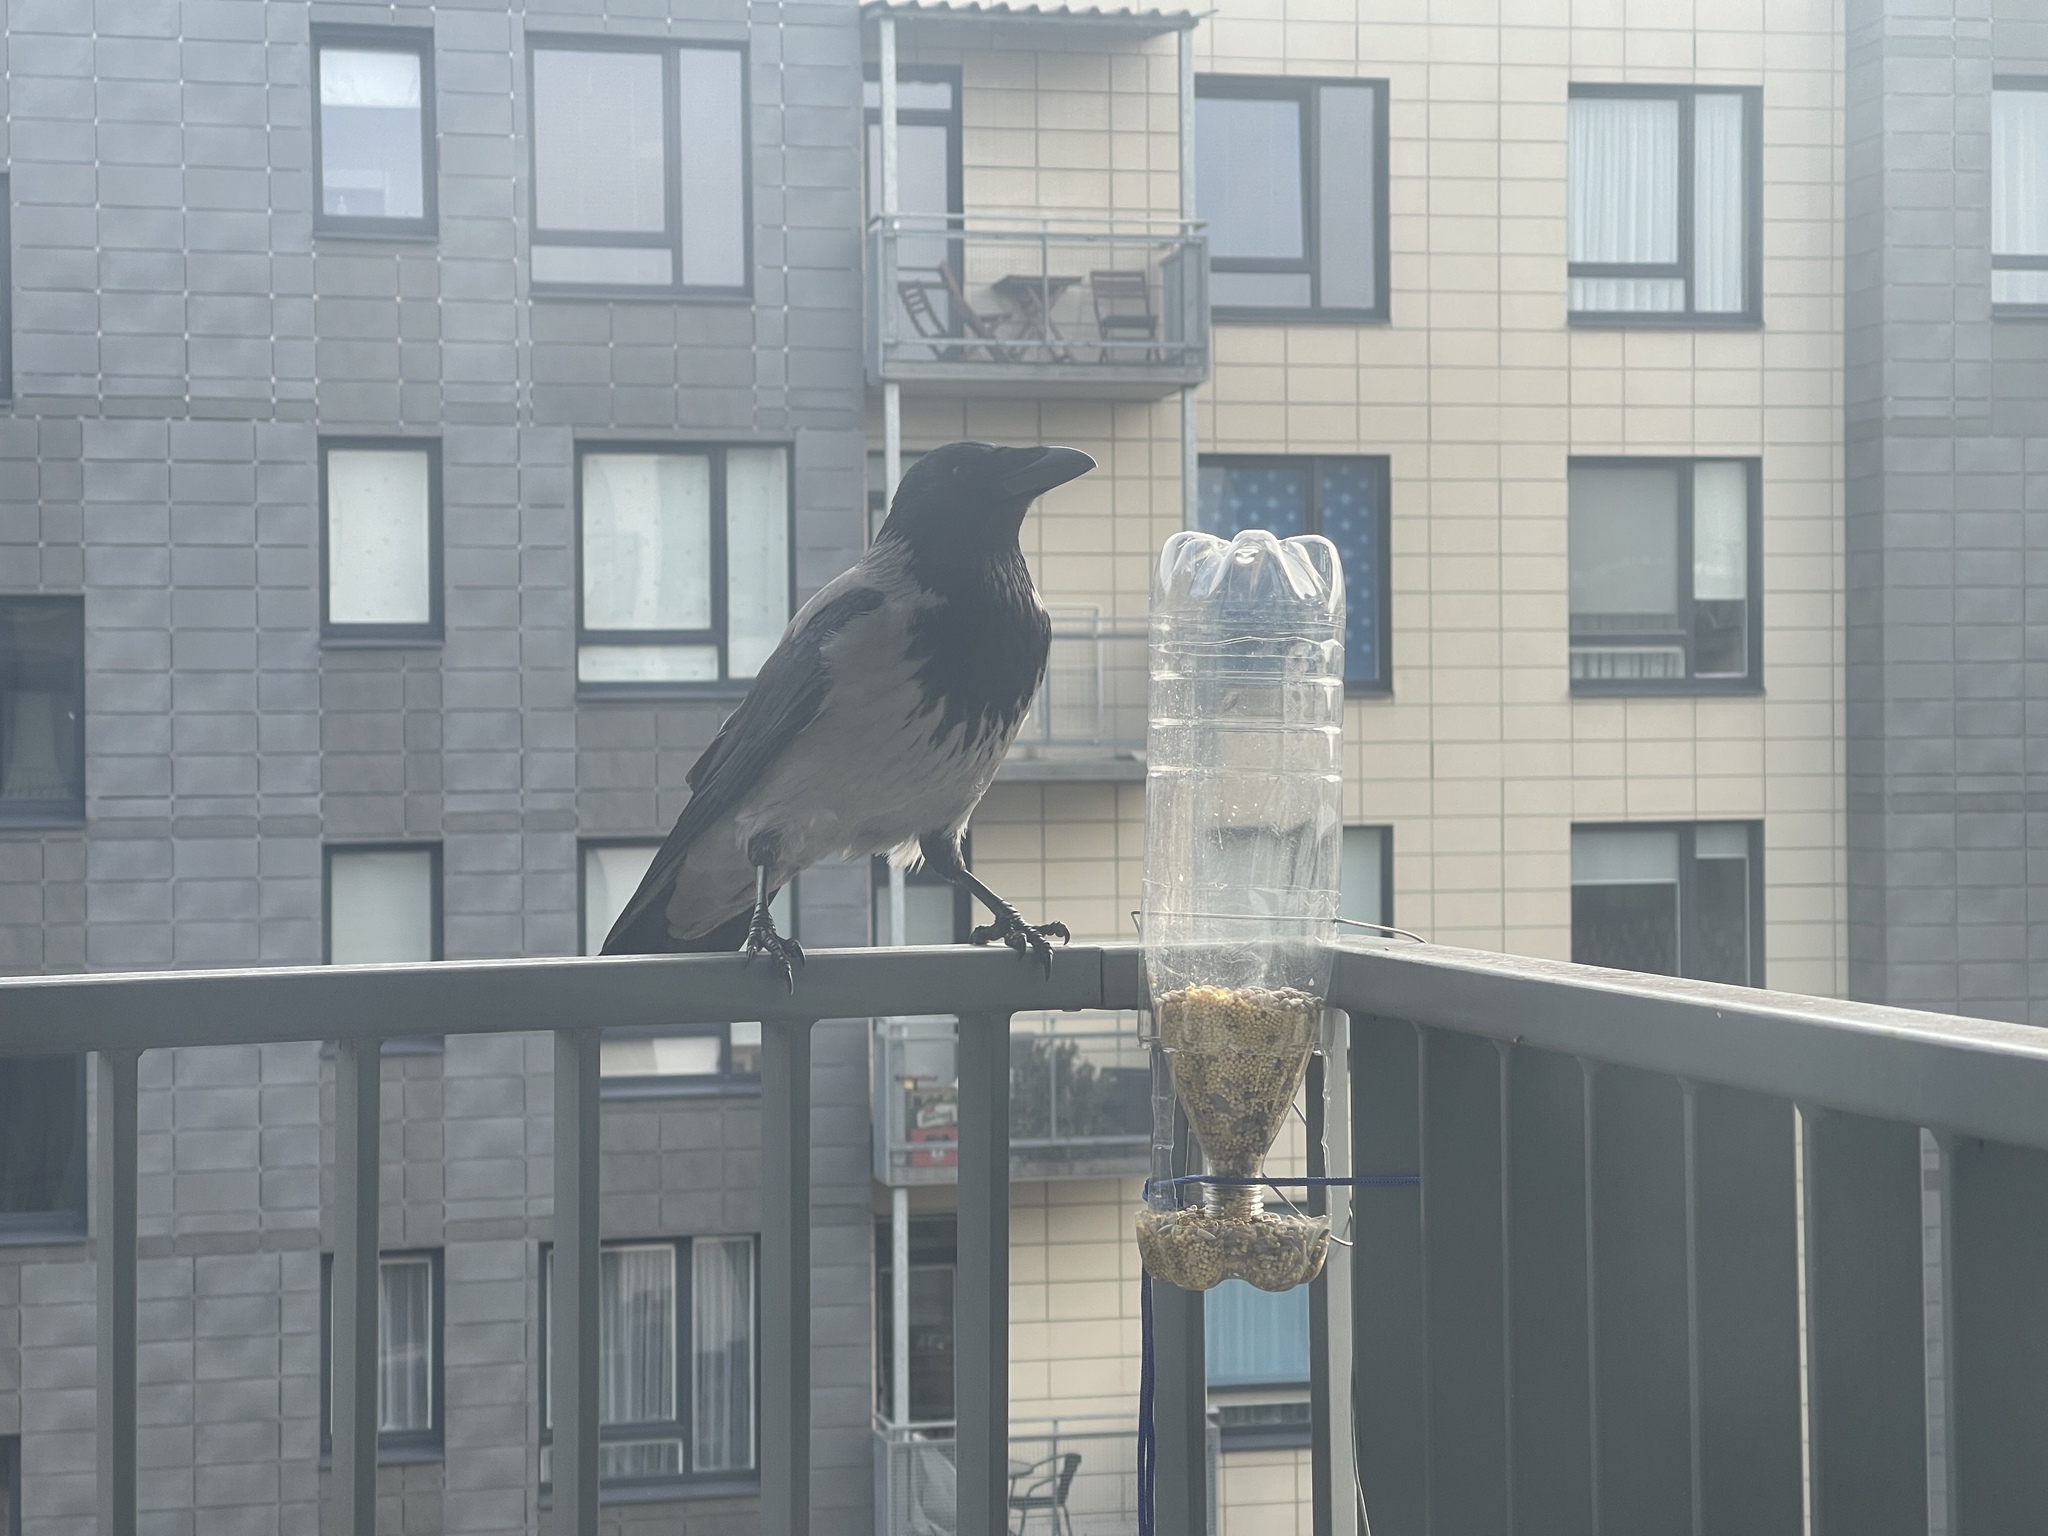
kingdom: Animalia
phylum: Chordata
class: Aves
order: Passeriformes
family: Corvidae
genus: Corvus
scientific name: Corvus cornix
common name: Hooded crow
